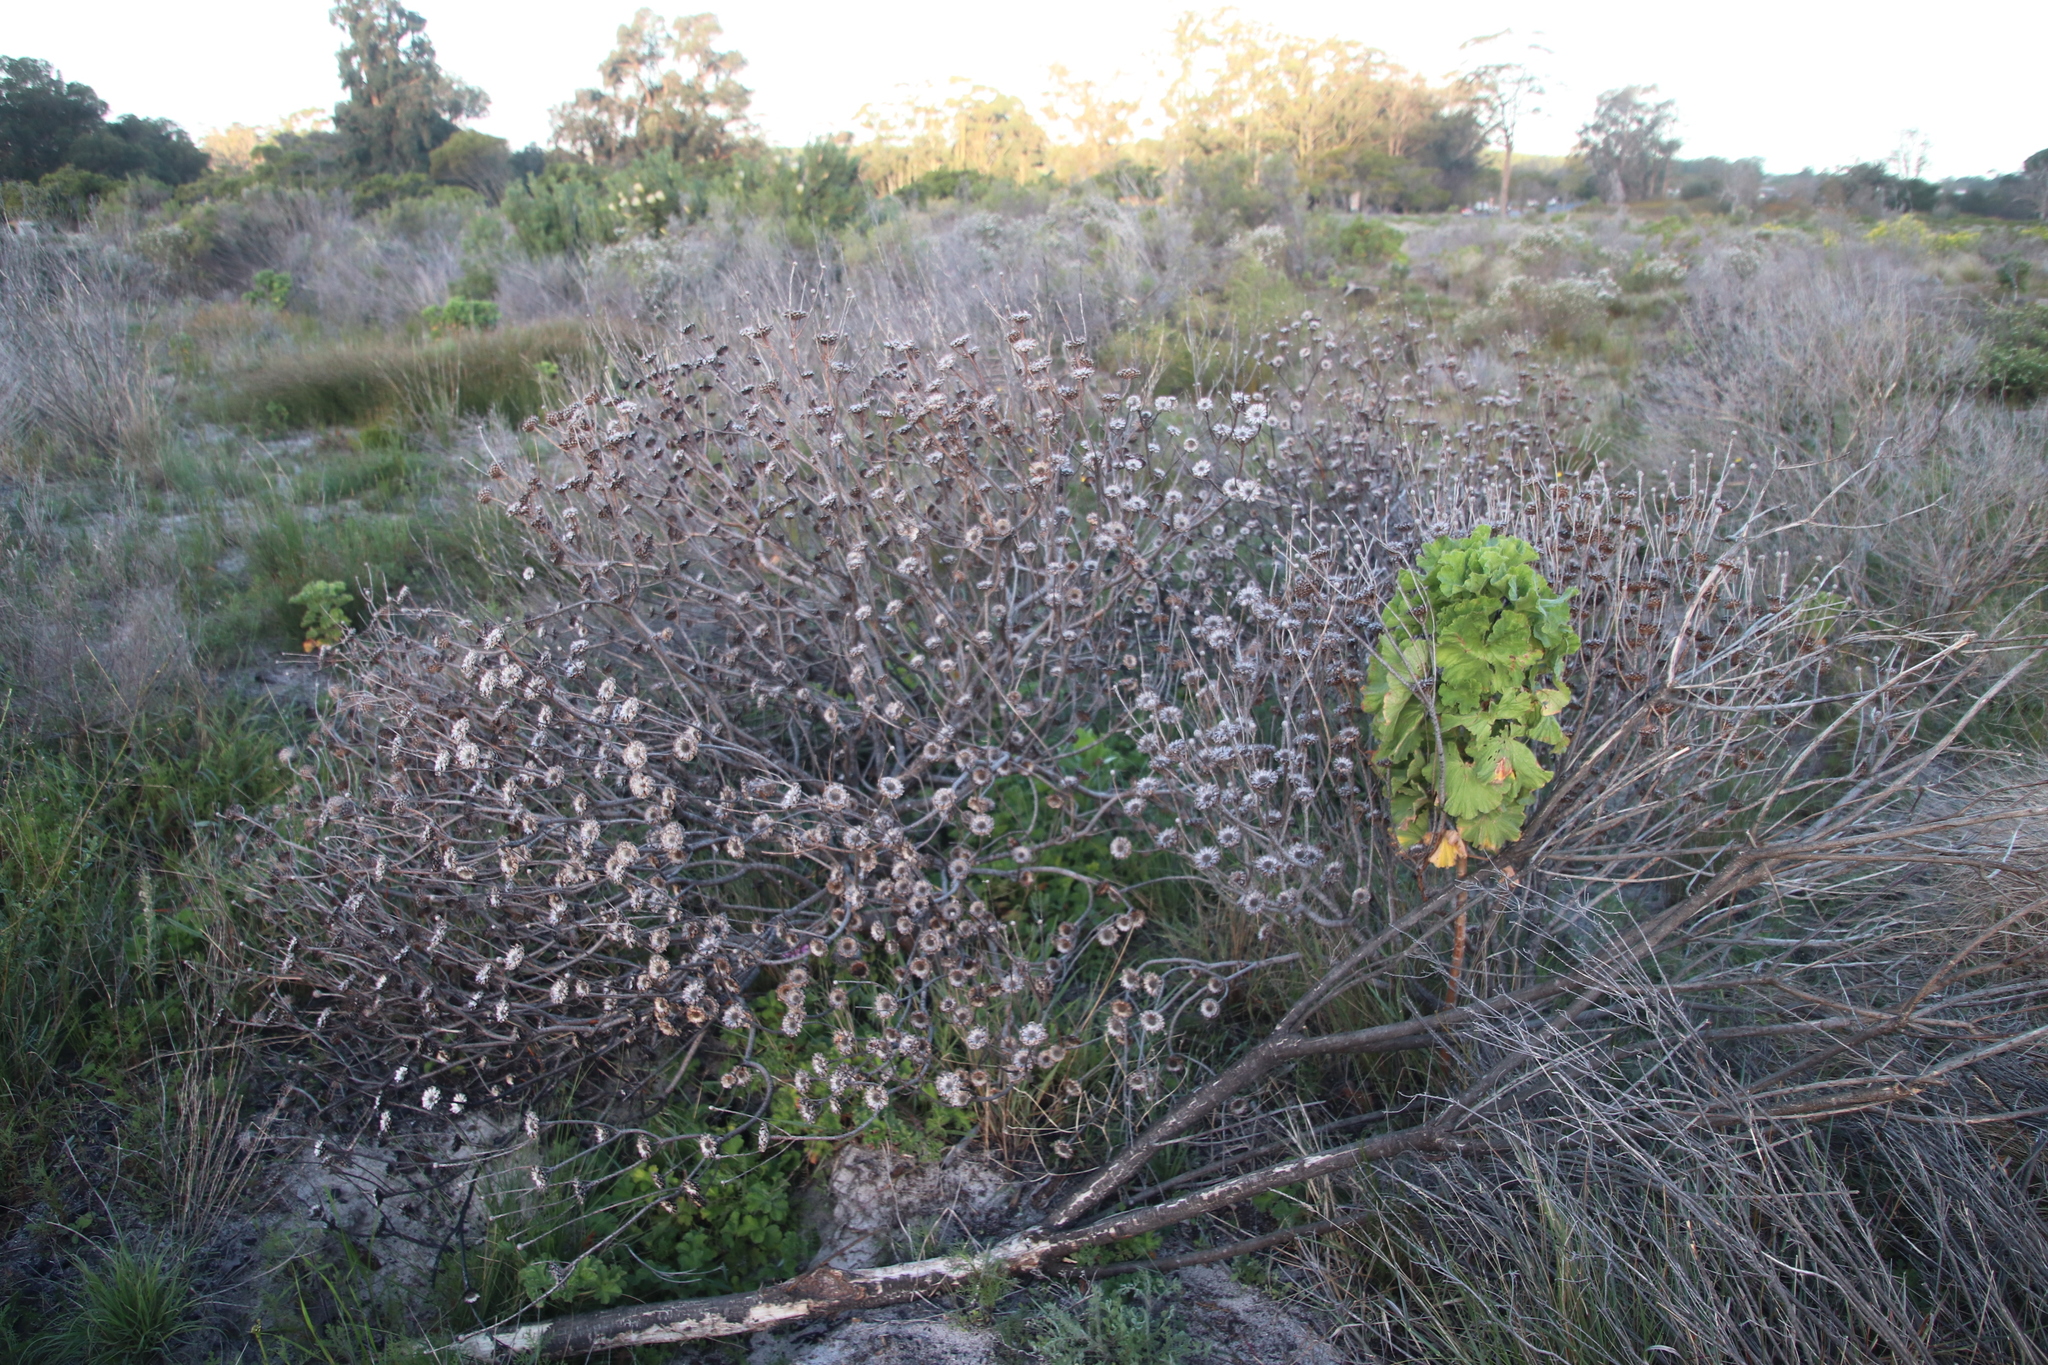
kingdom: Plantae
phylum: Tracheophyta
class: Magnoliopsida
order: Proteales
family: Proteaceae
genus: Protea
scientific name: Protea scolymocephala
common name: Thistle sugarbush
